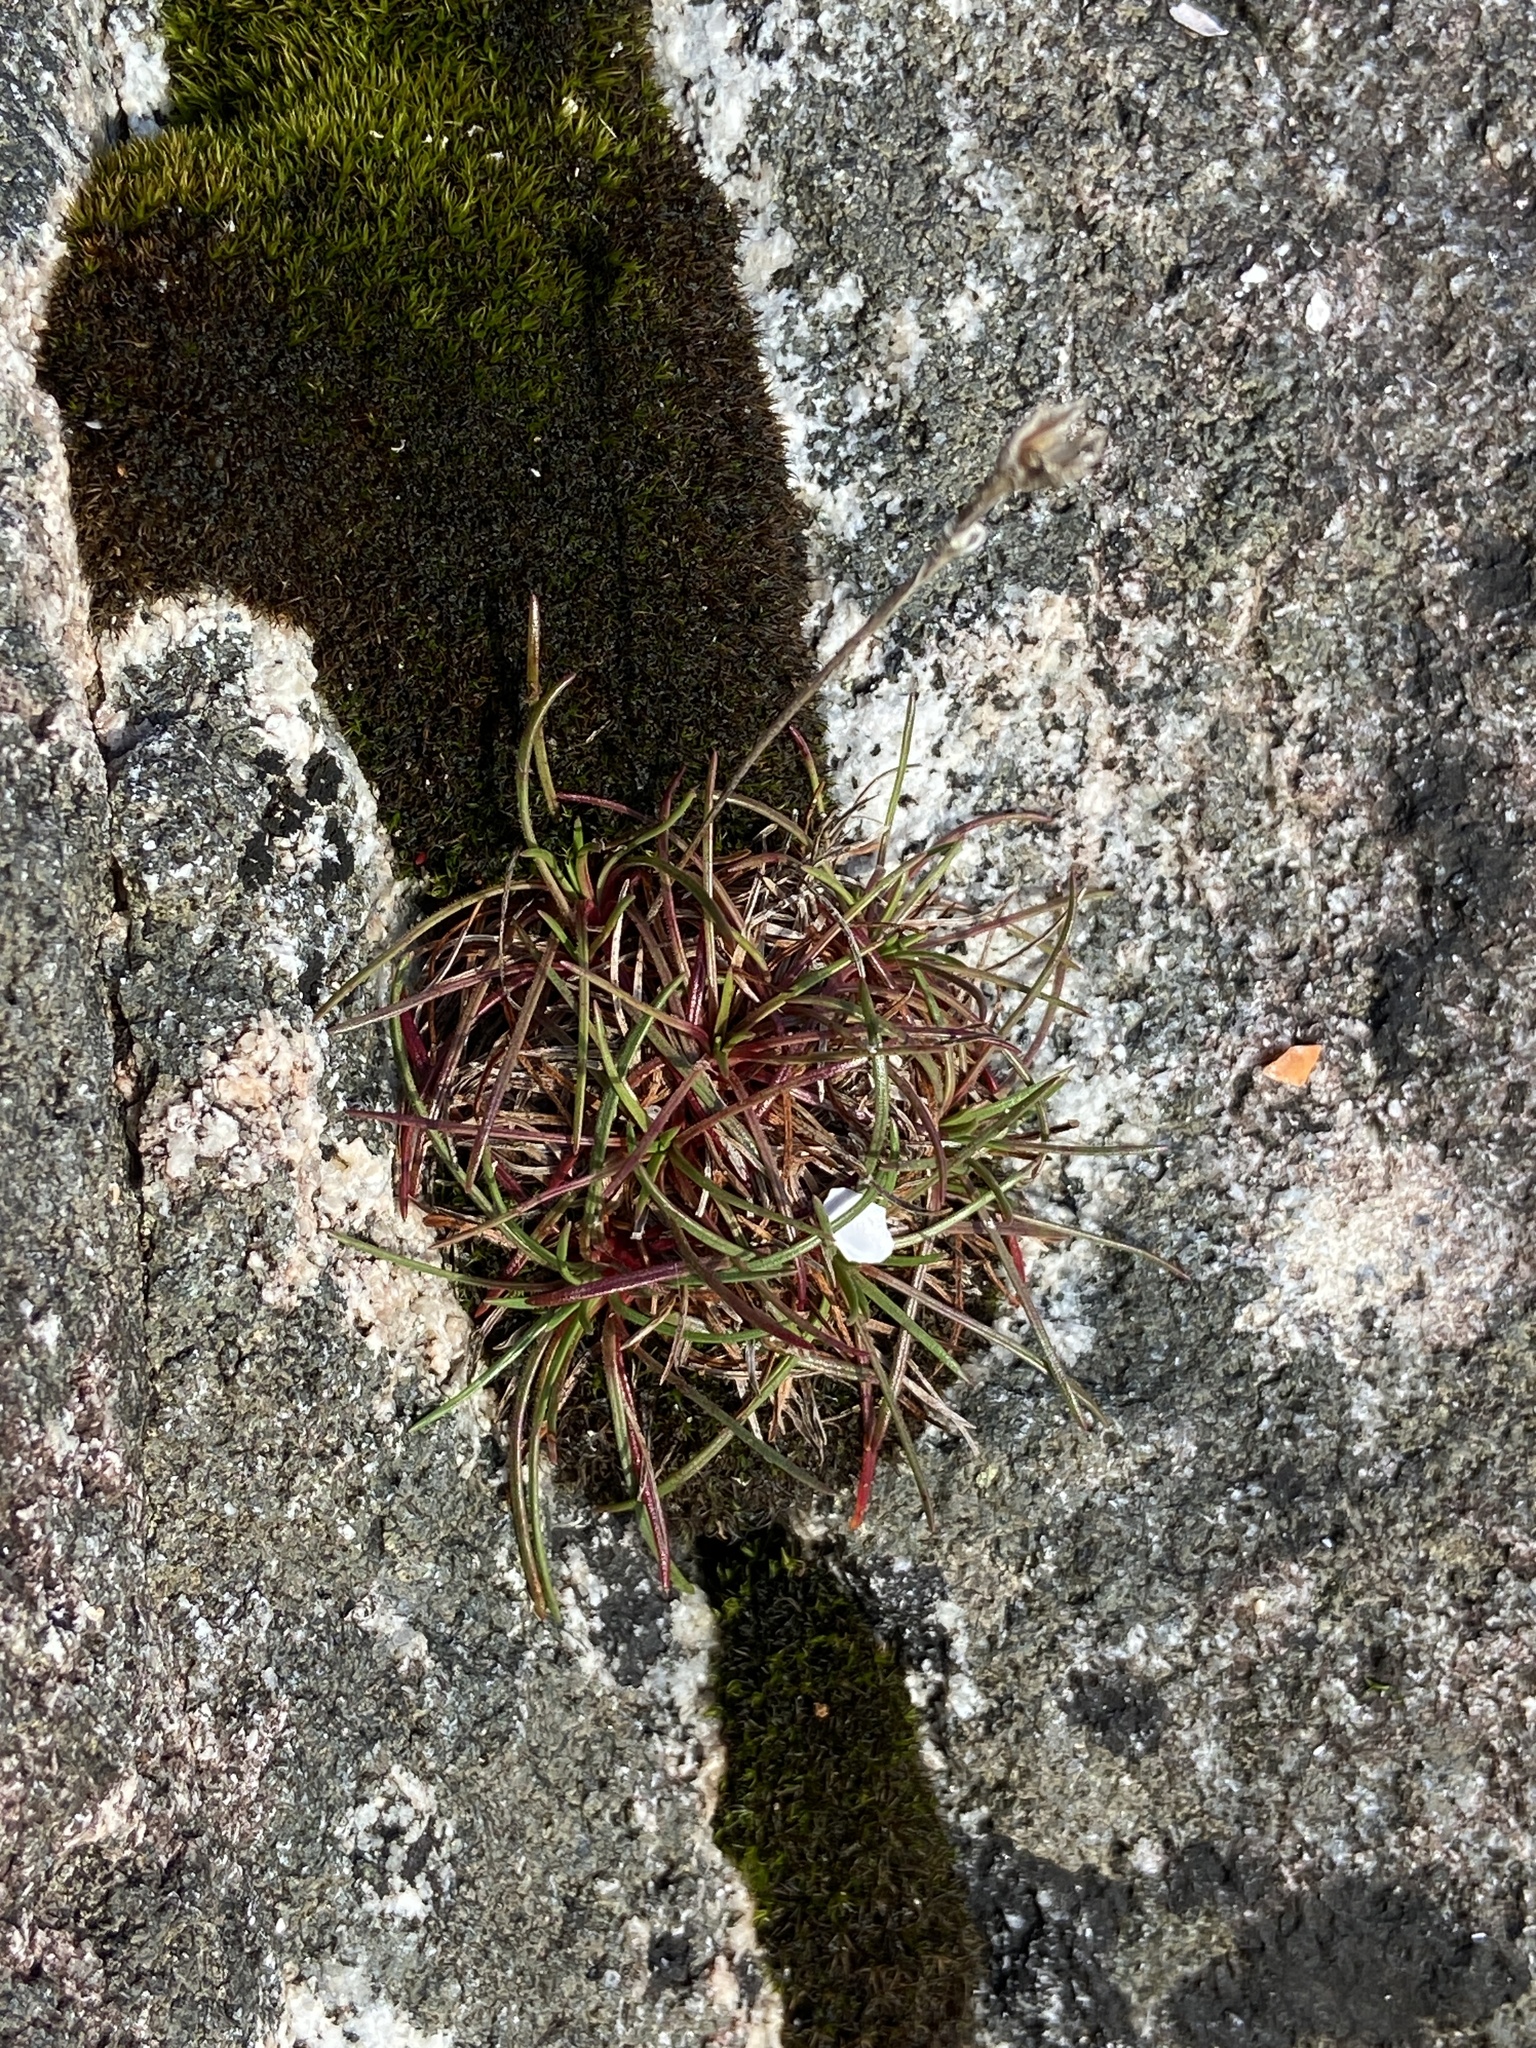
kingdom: Plantae
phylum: Tracheophyta
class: Magnoliopsida
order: Caryophyllales
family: Plumbaginaceae
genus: Armeria
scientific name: Armeria maritima
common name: Thrift
